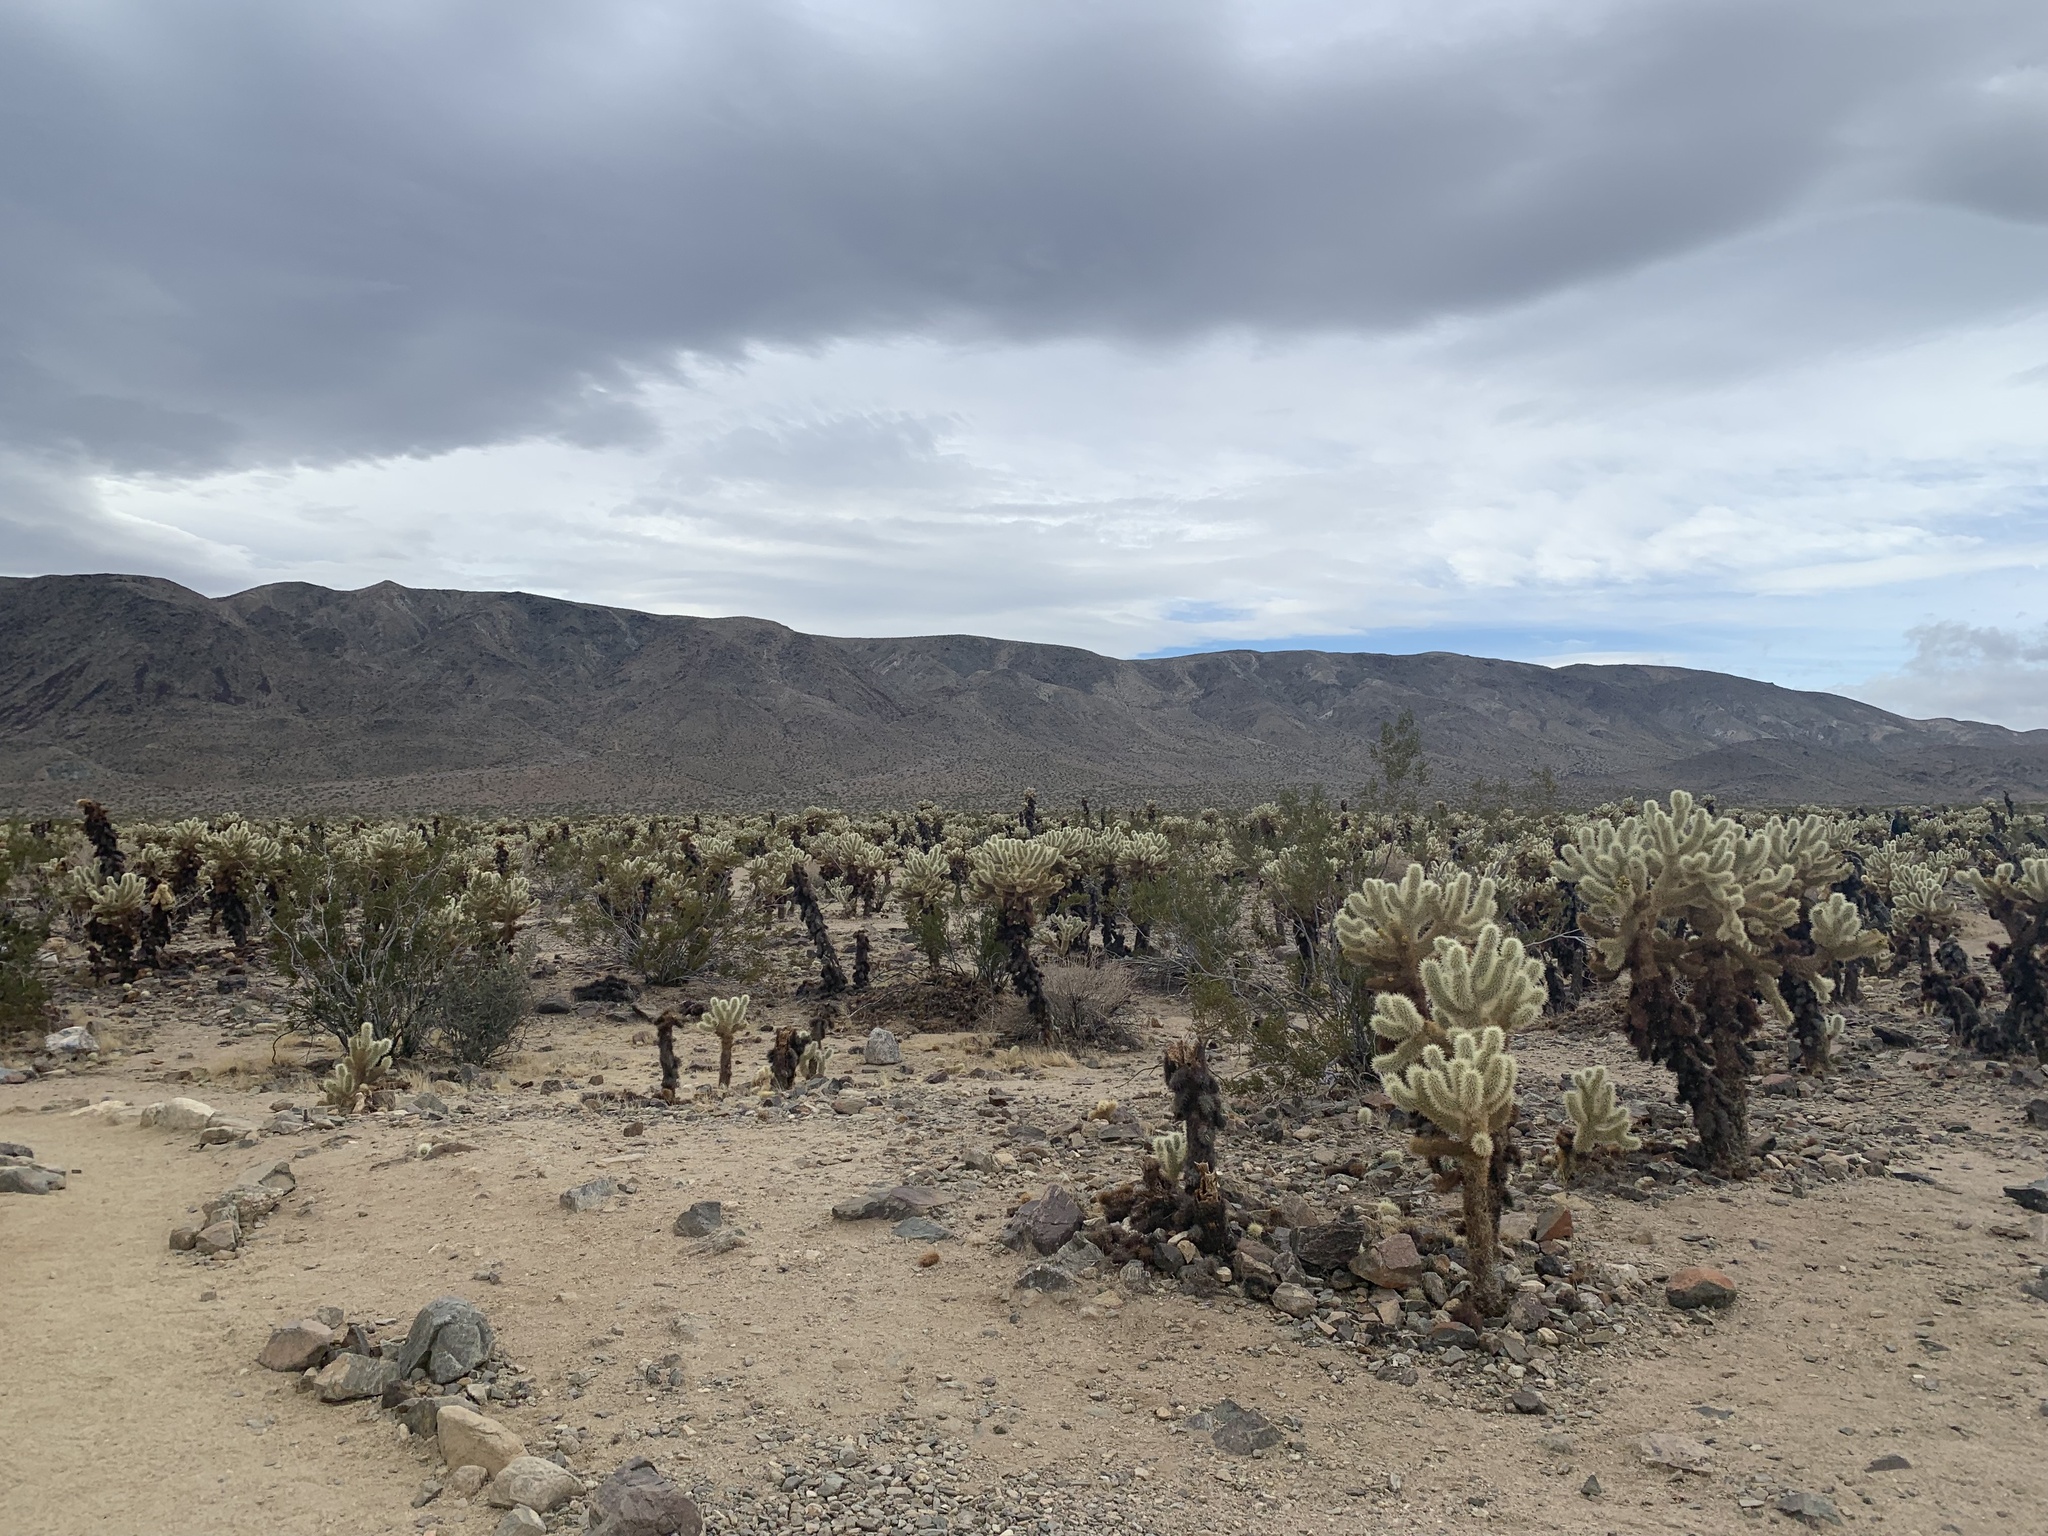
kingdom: Plantae
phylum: Tracheophyta
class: Magnoliopsida
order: Caryophyllales
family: Cactaceae
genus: Cylindropuntia
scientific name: Cylindropuntia fosbergii
